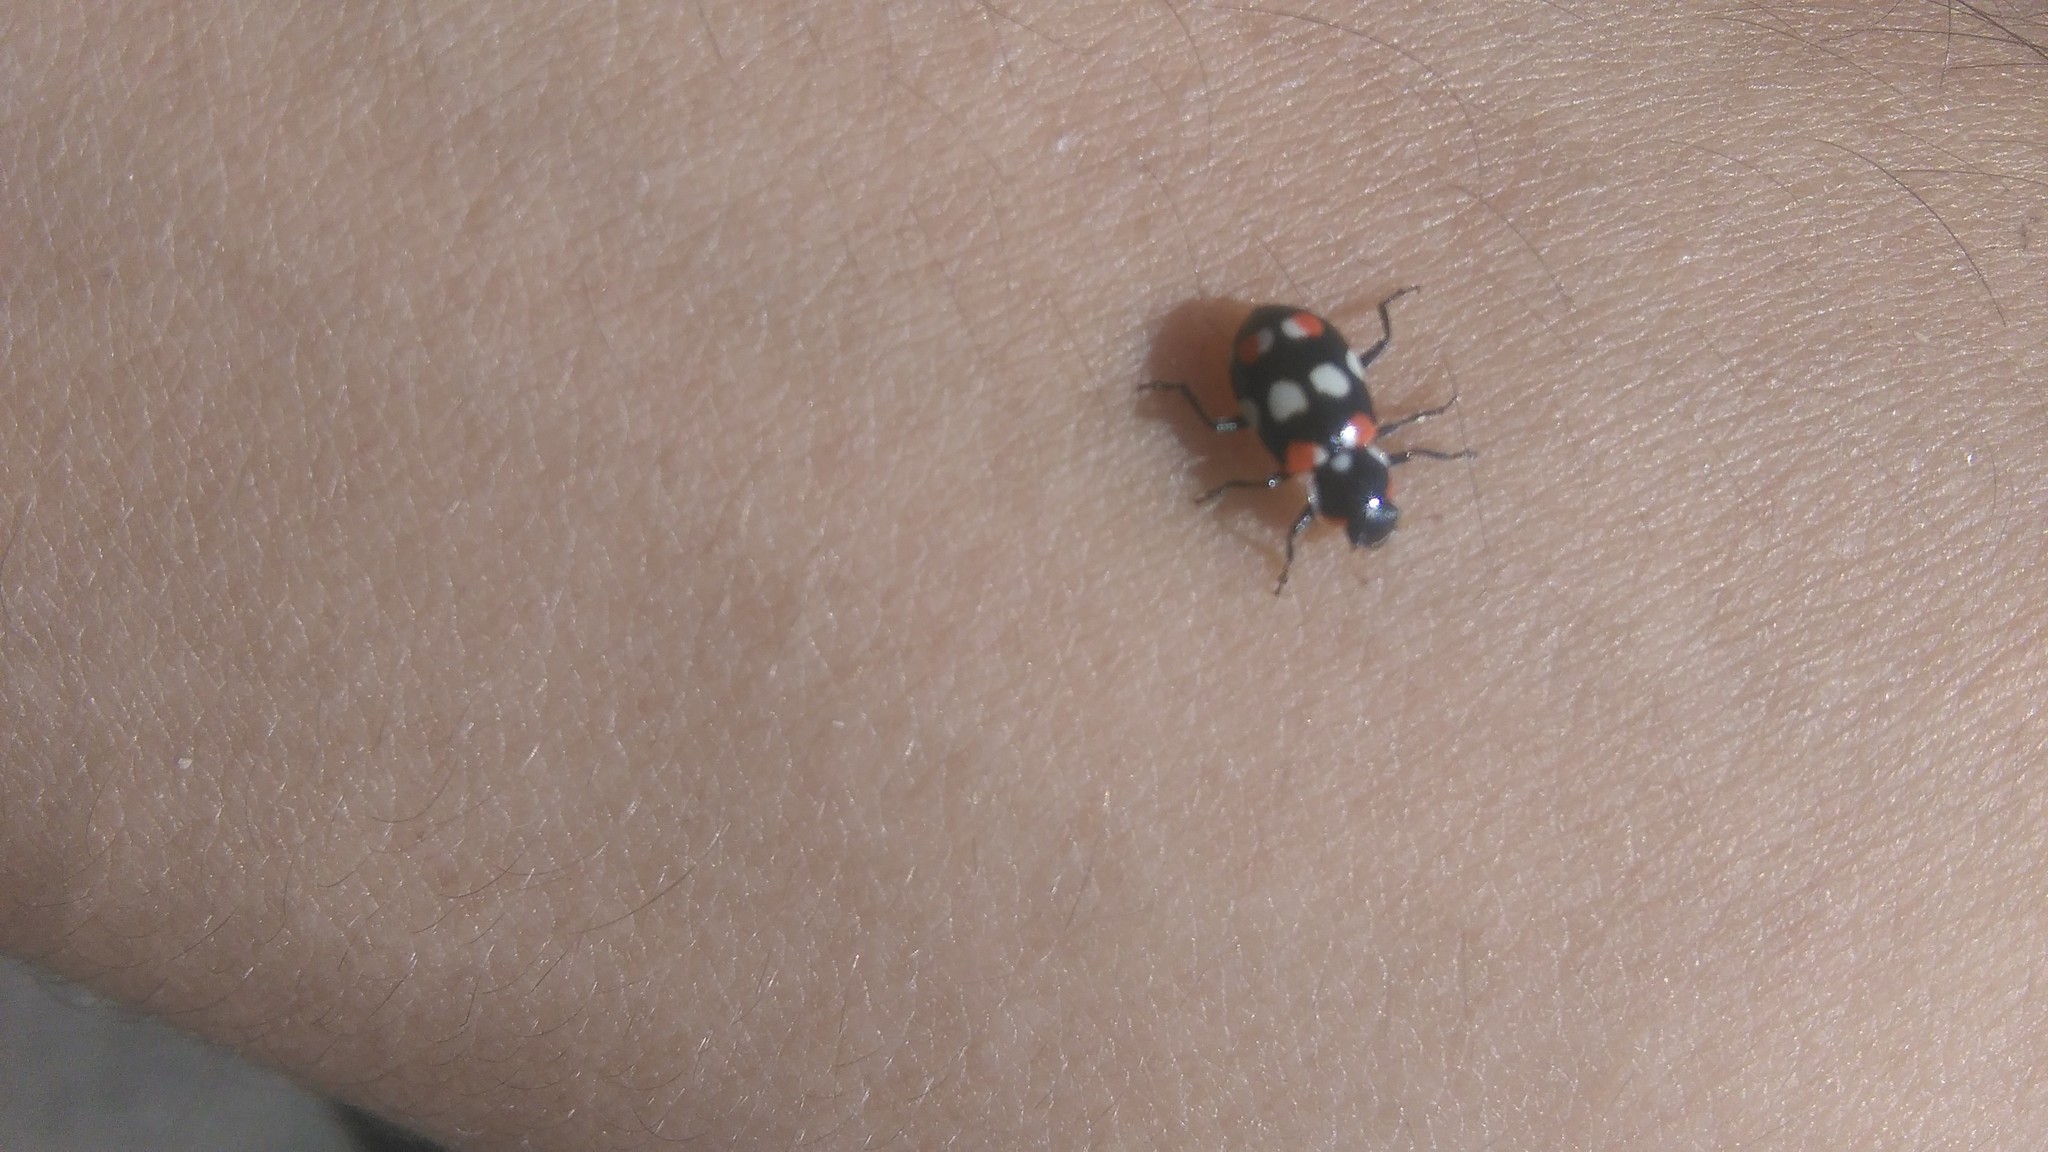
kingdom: Animalia
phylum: Arthropoda
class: Insecta
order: Coleoptera
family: Coccinellidae
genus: Eriopis
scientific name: Eriopis connexa
